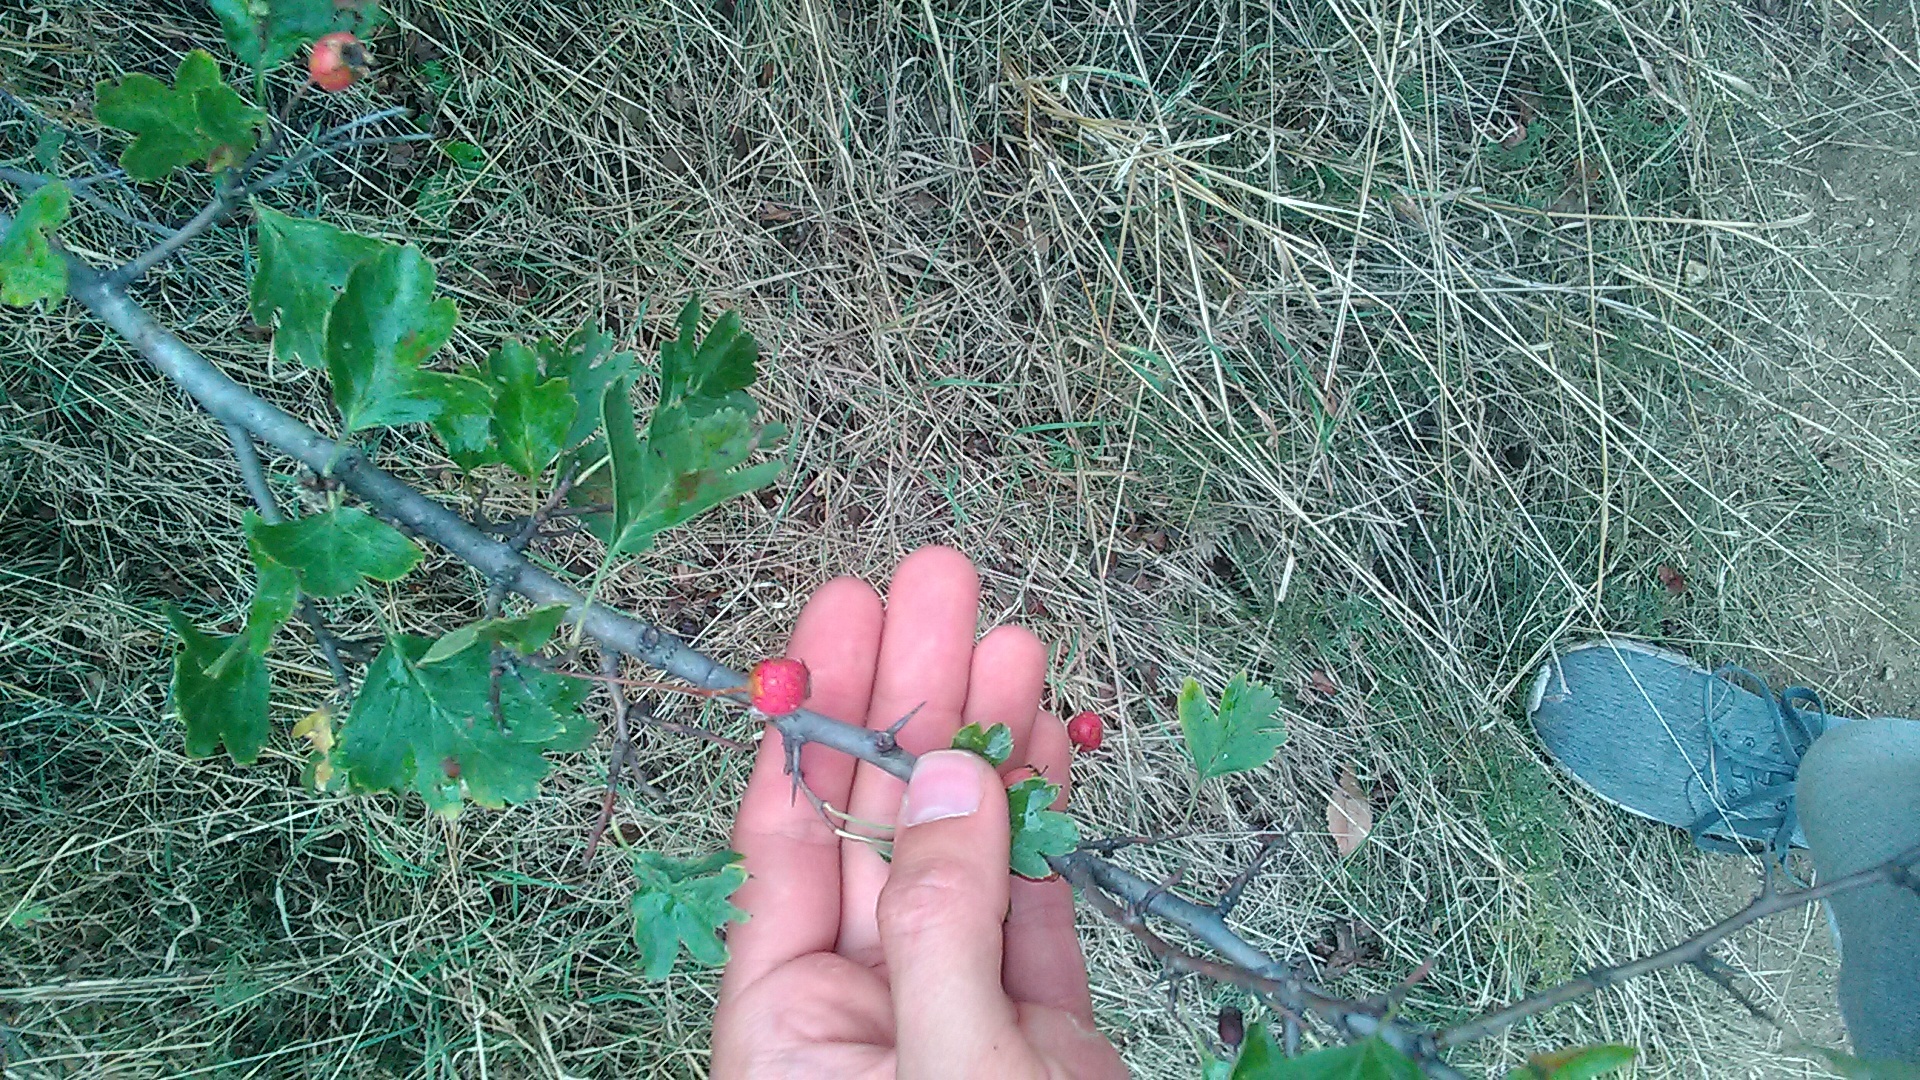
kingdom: Plantae
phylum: Tracheophyta
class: Magnoliopsida
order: Rosales
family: Rosaceae
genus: Crataegus
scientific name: Crataegus monogyna
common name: Hawthorn
